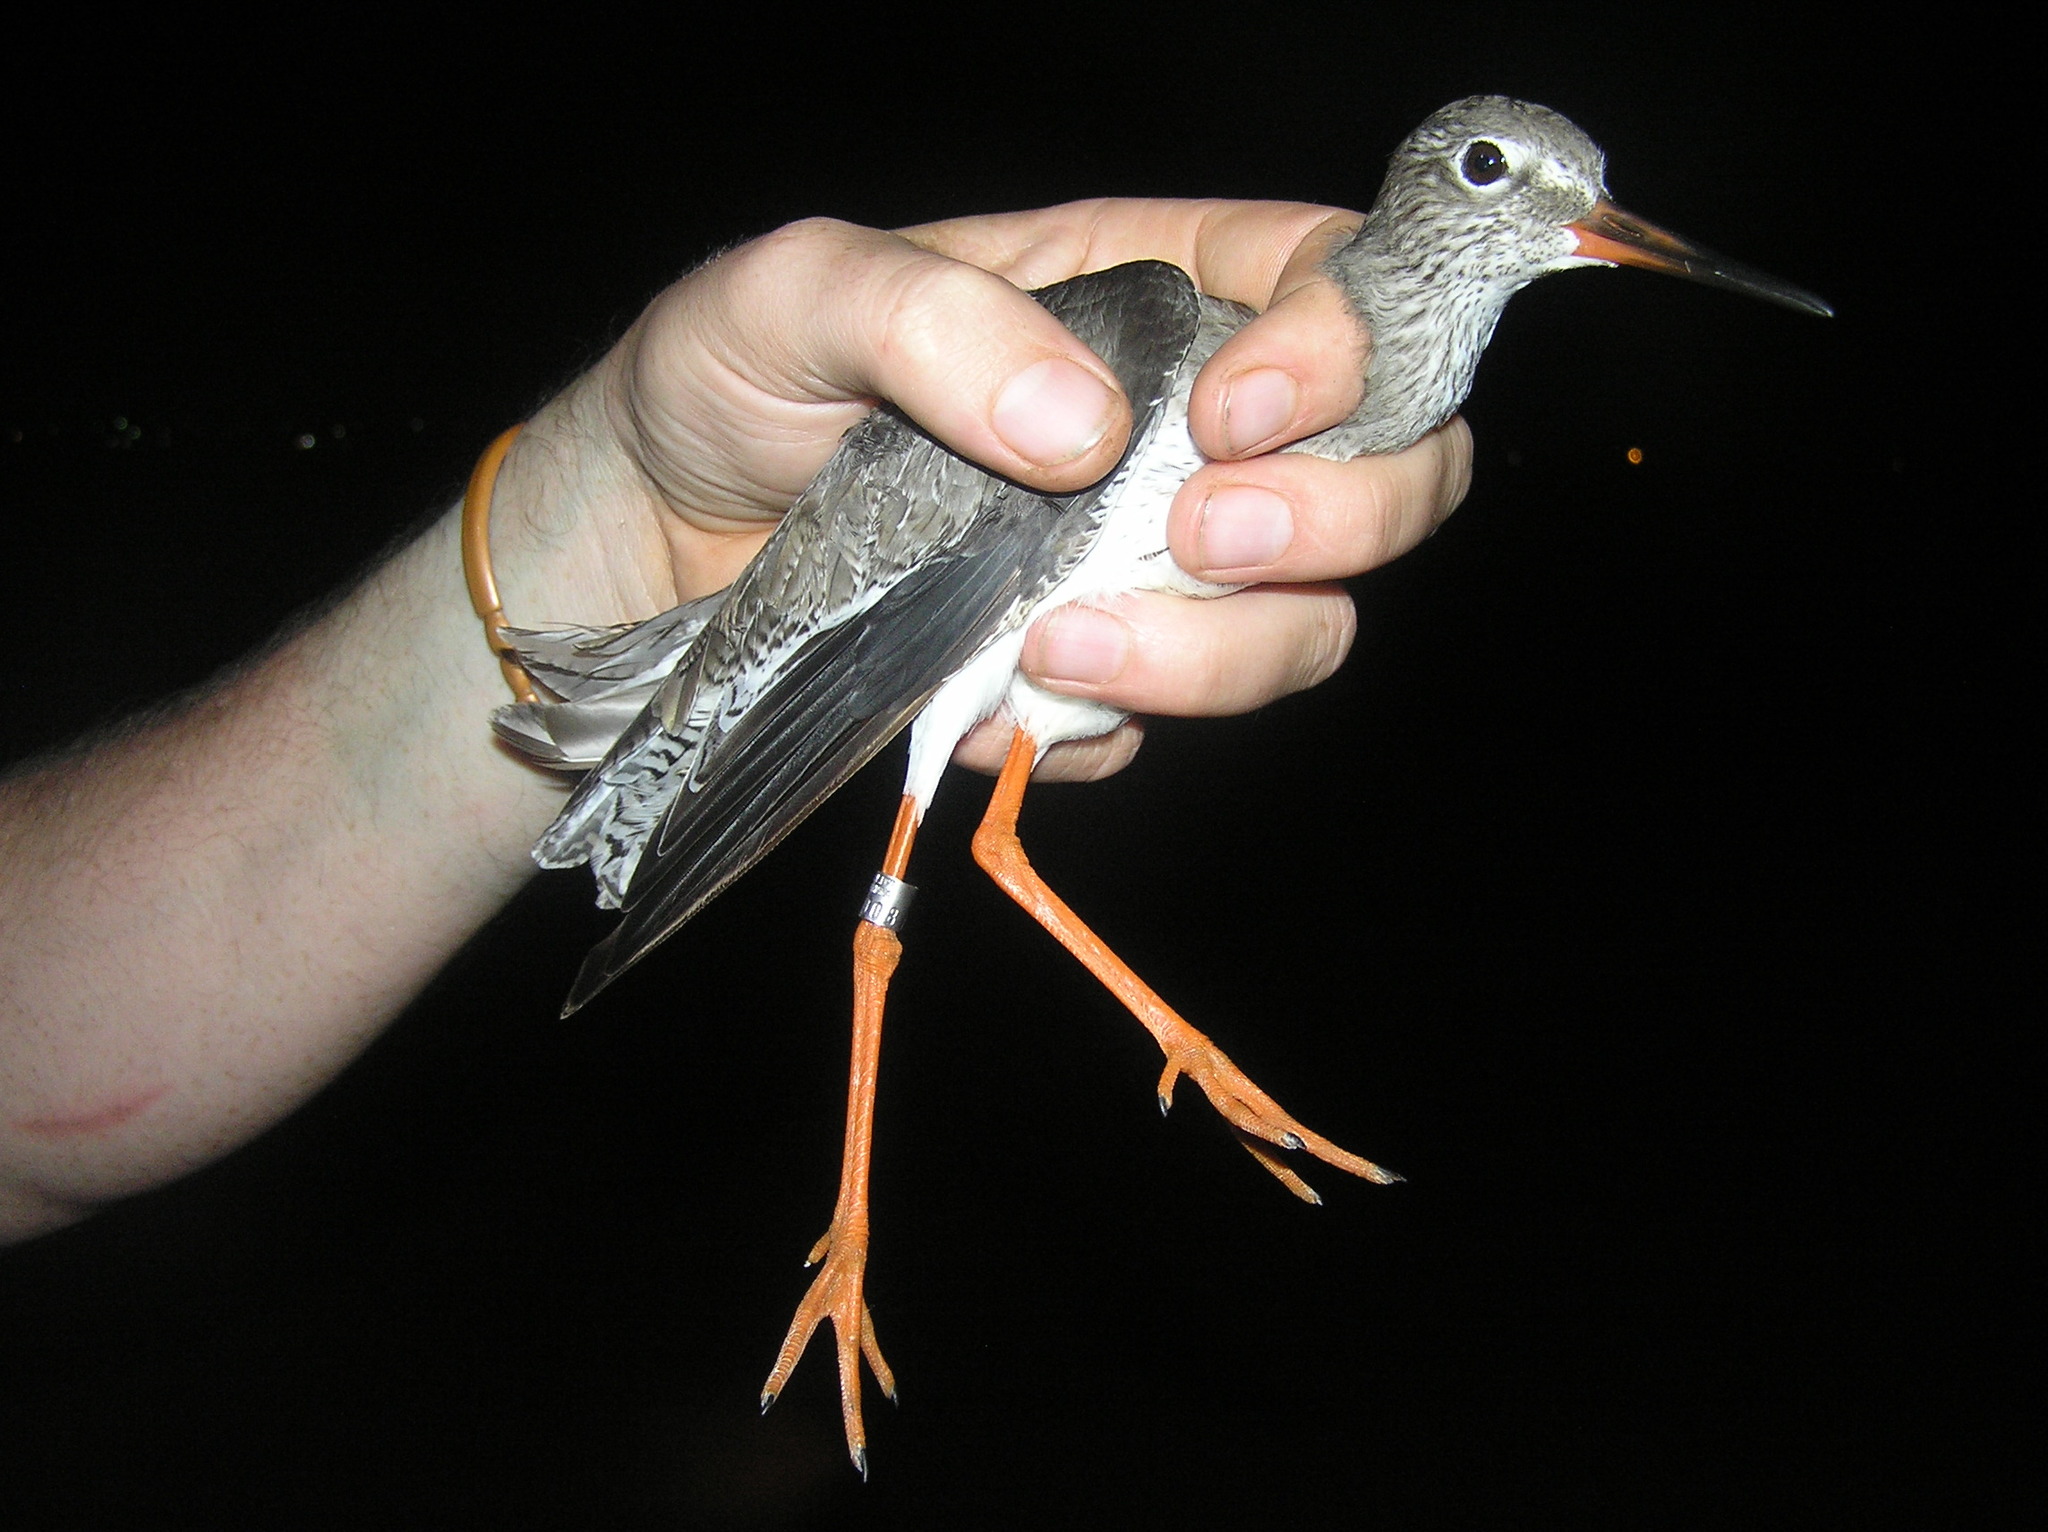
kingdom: Animalia
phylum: Chordata
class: Aves
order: Charadriiformes
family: Scolopacidae
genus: Tringa
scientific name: Tringa totanus
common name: Common redshank
